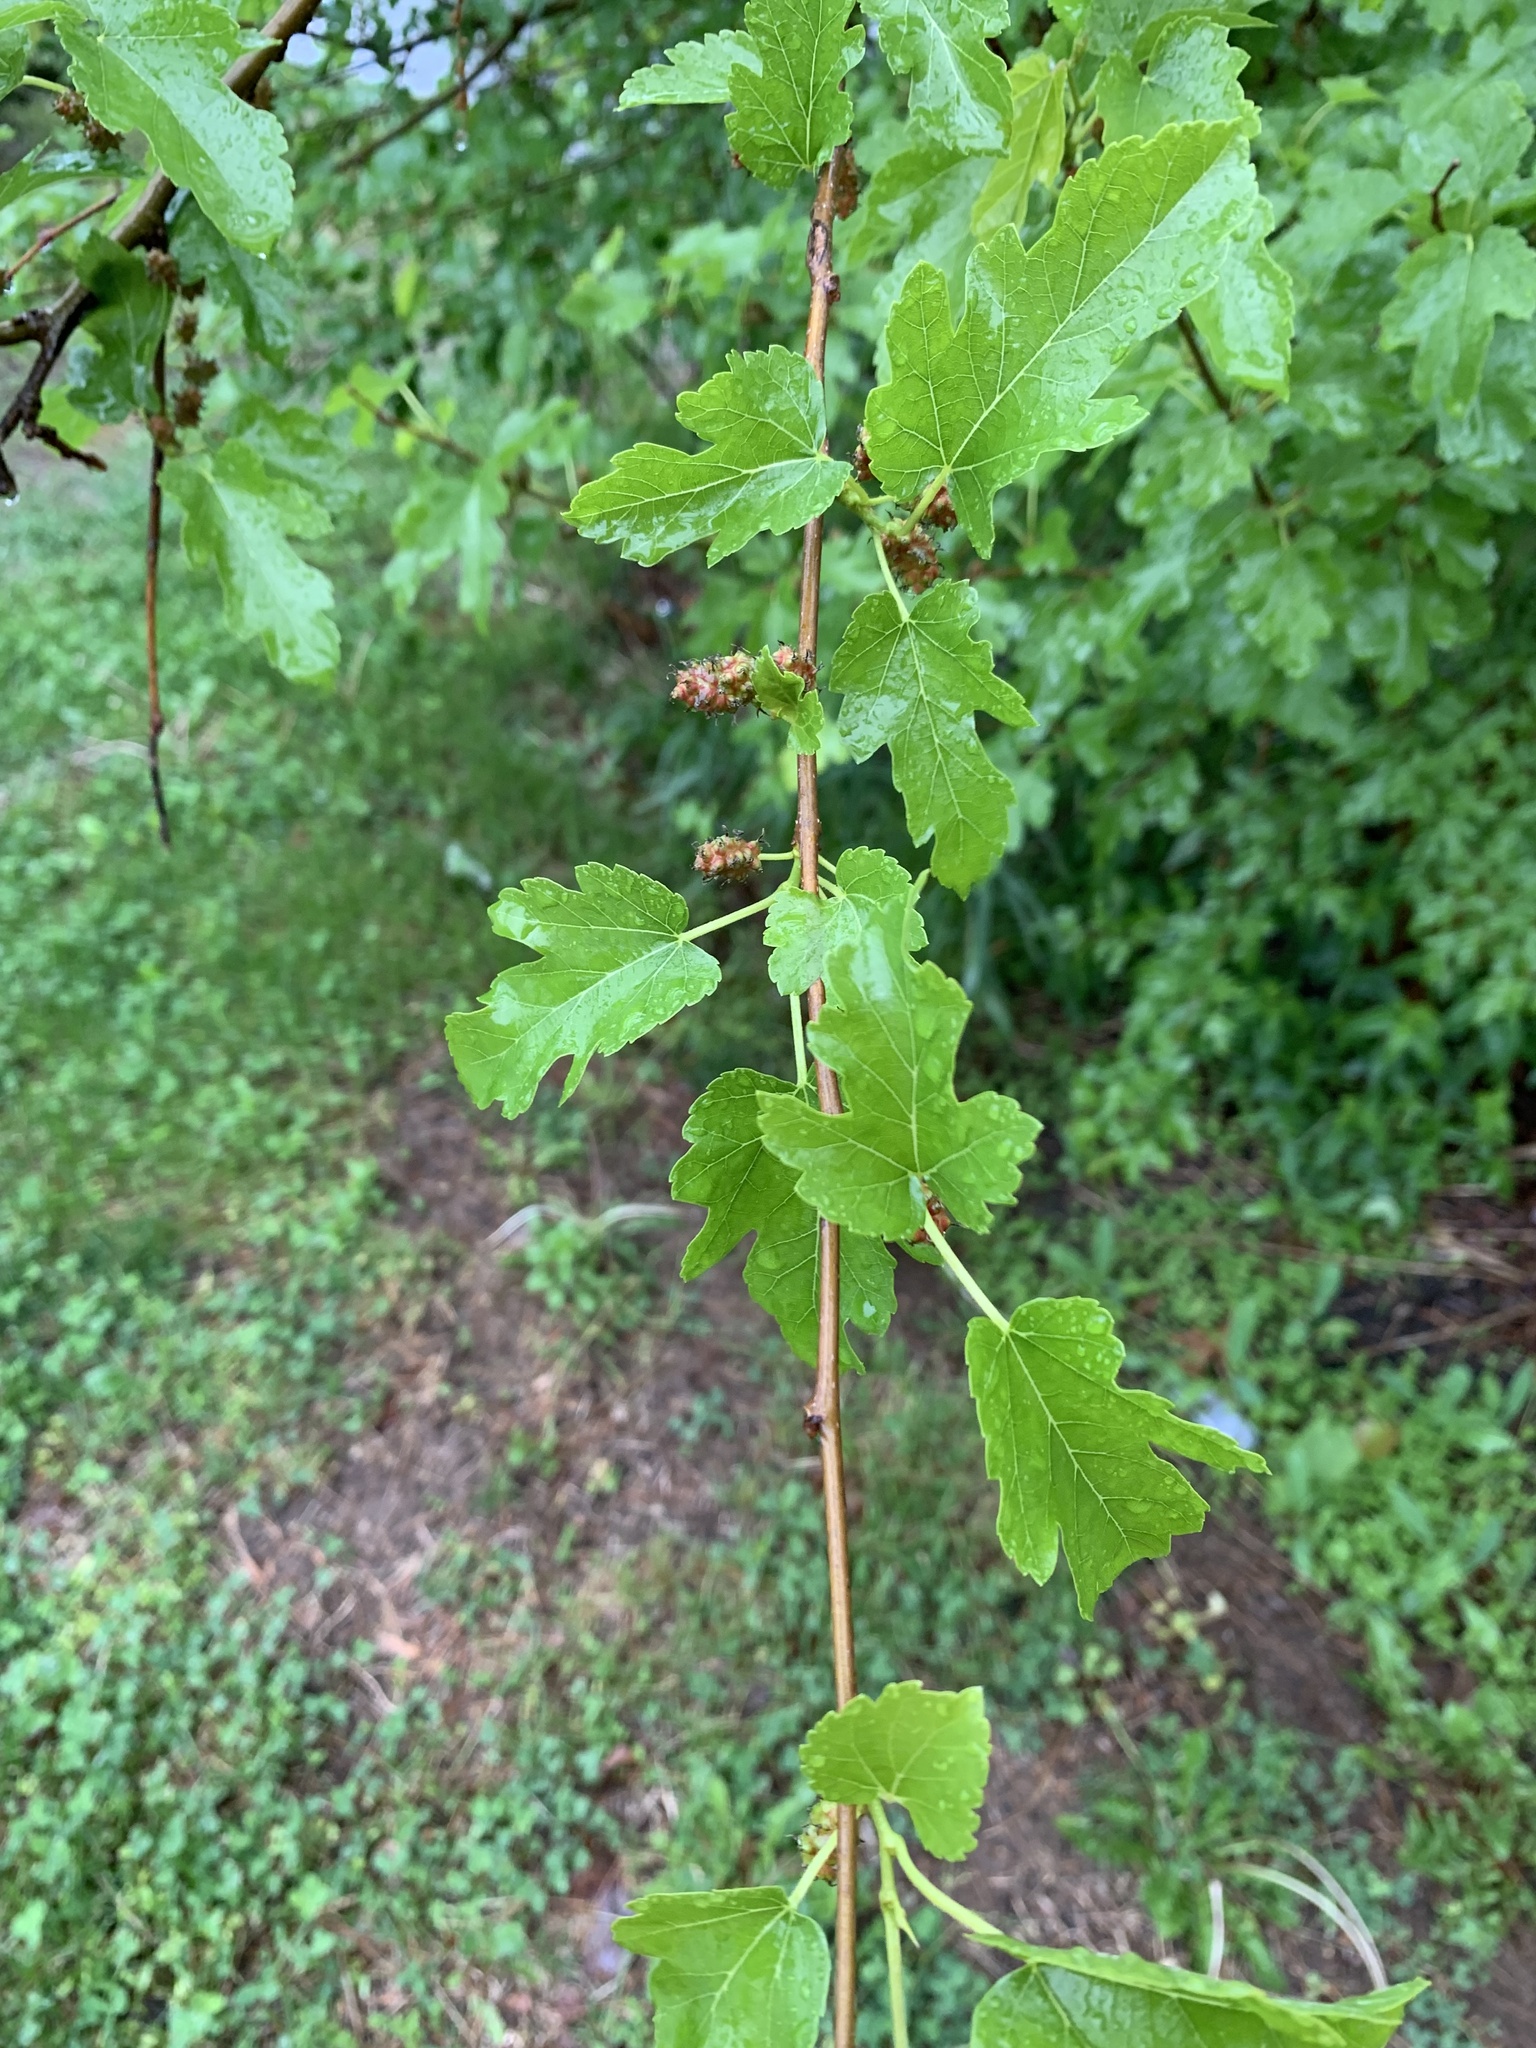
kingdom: Plantae
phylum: Tracheophyta
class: Magnoliopsida
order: Rosales
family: Moraceae
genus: Morus
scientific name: Morus alba
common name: White mulberry
